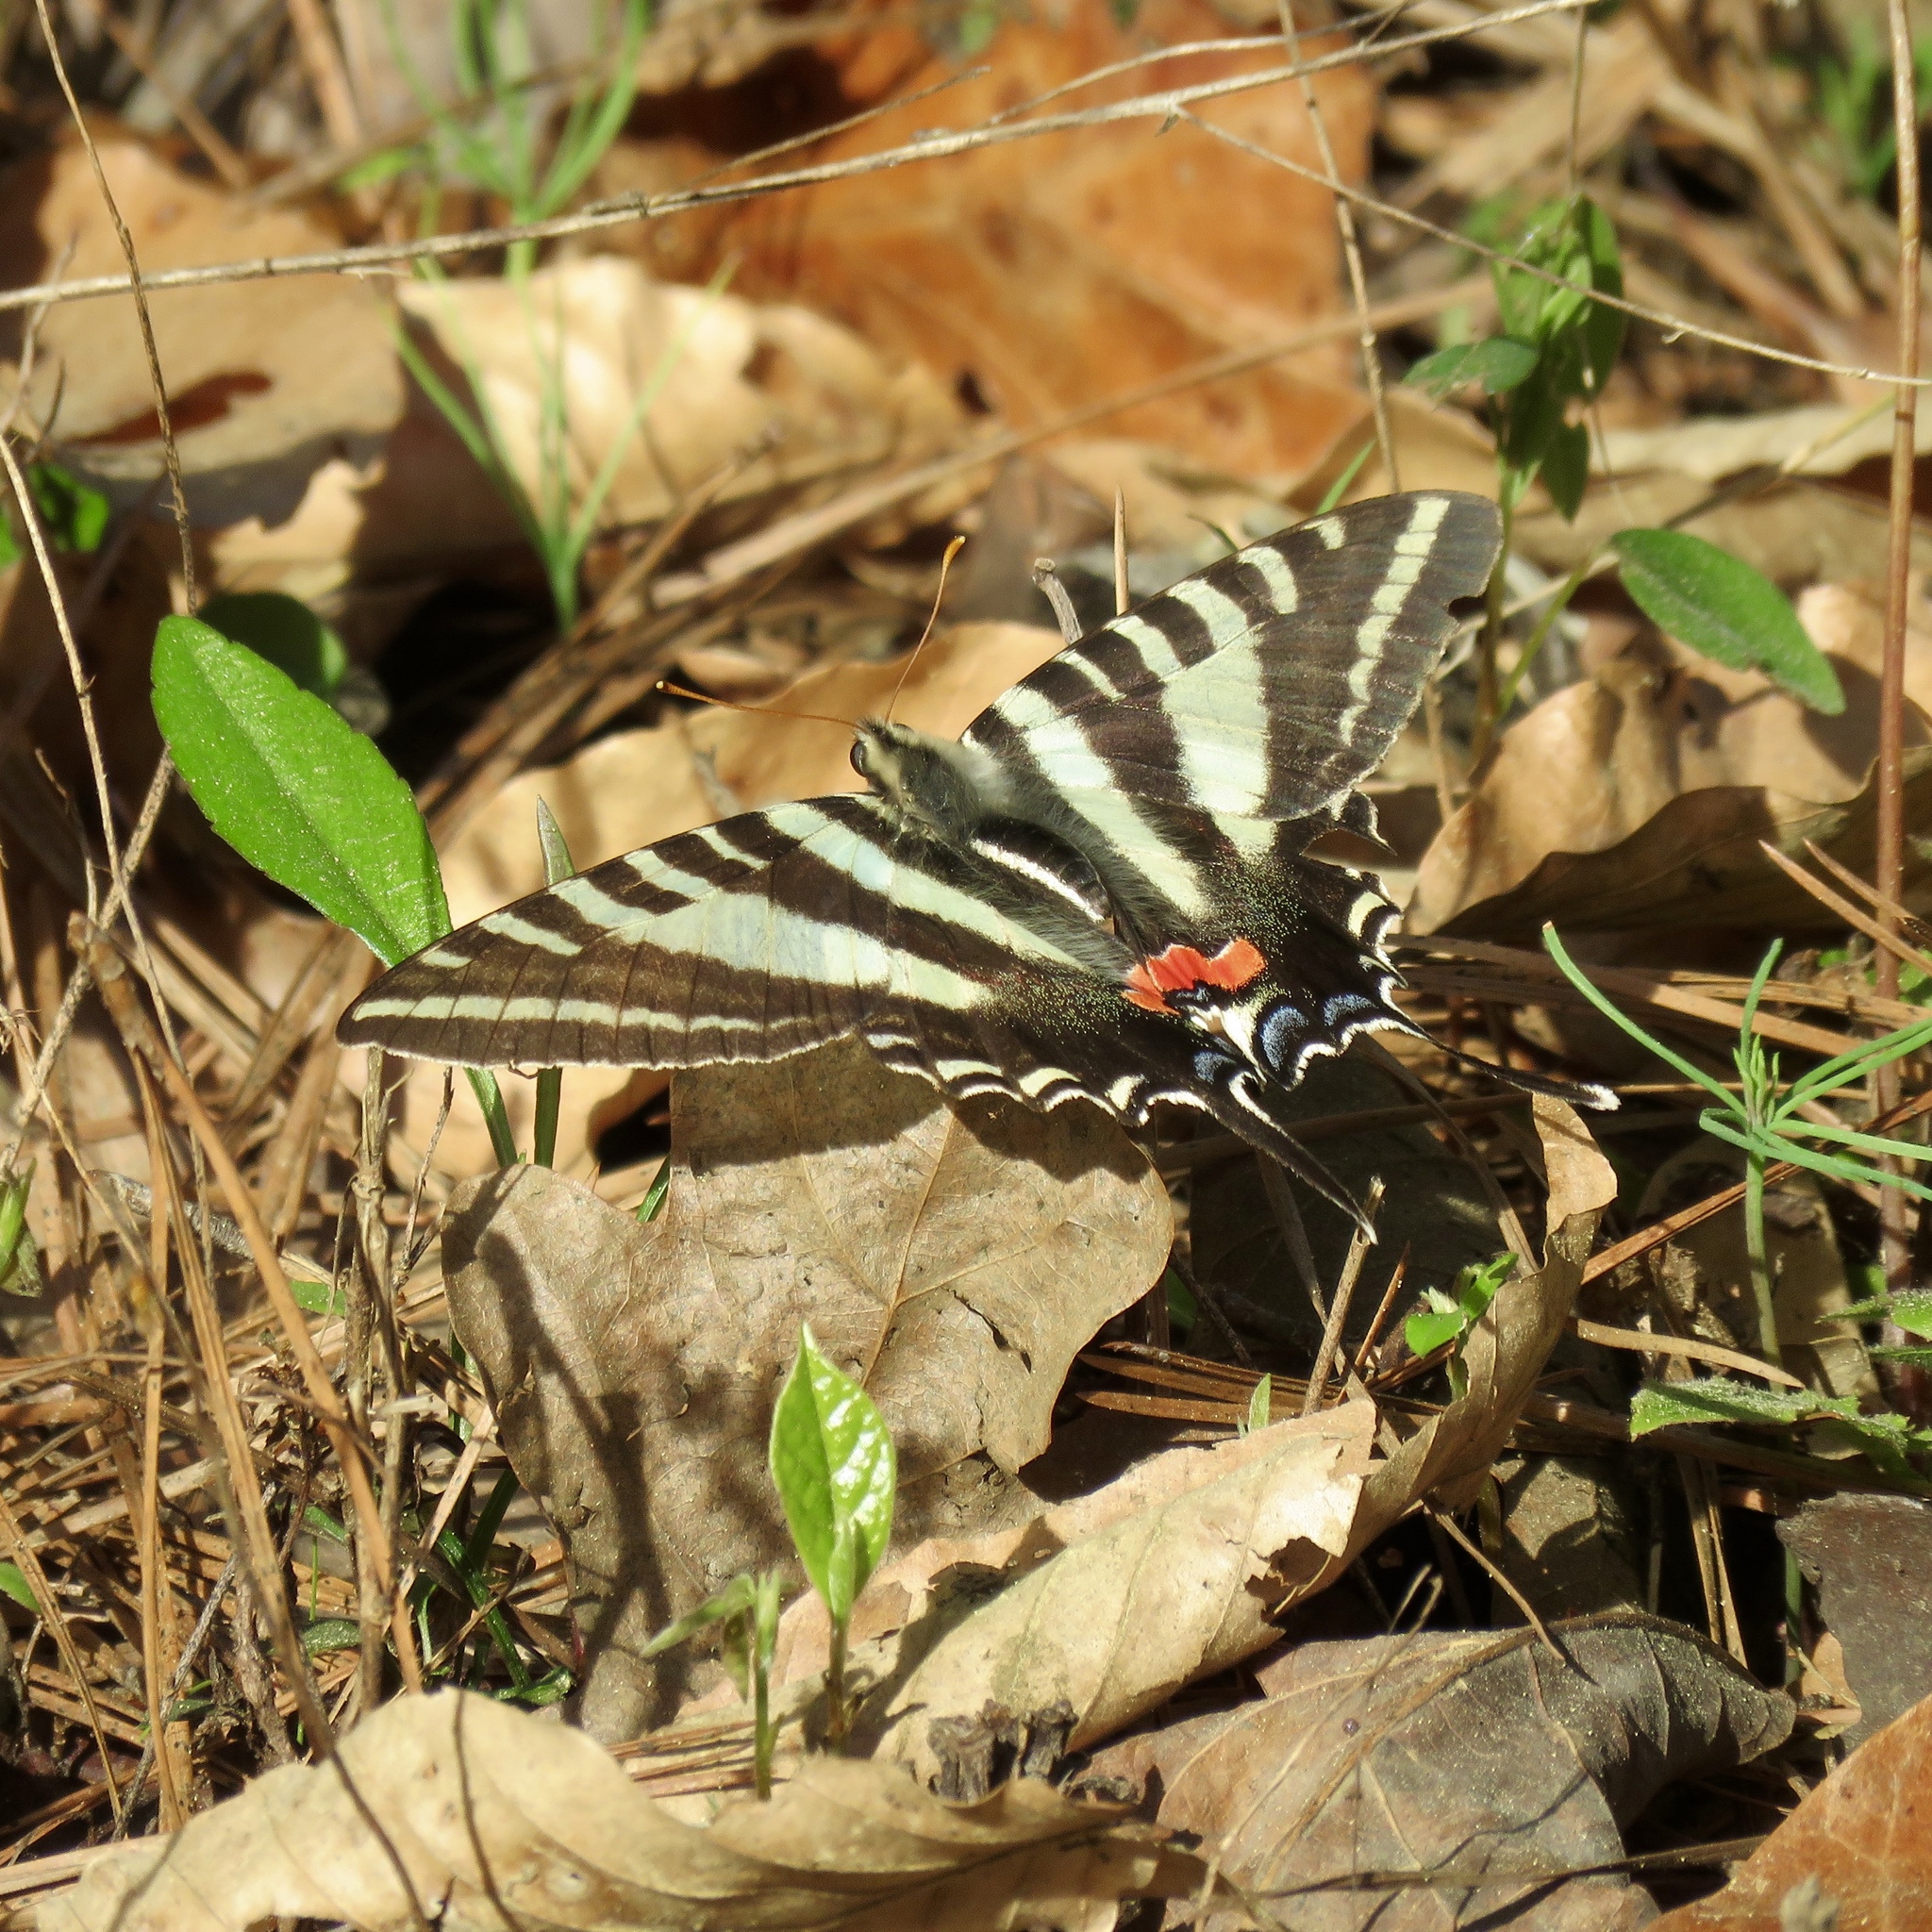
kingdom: Animalia
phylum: Arthropoda
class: Insecta
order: Lepidoptera
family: Papilionidae
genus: Protographium
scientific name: Protographium marcellus
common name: Zebra swallowtail
